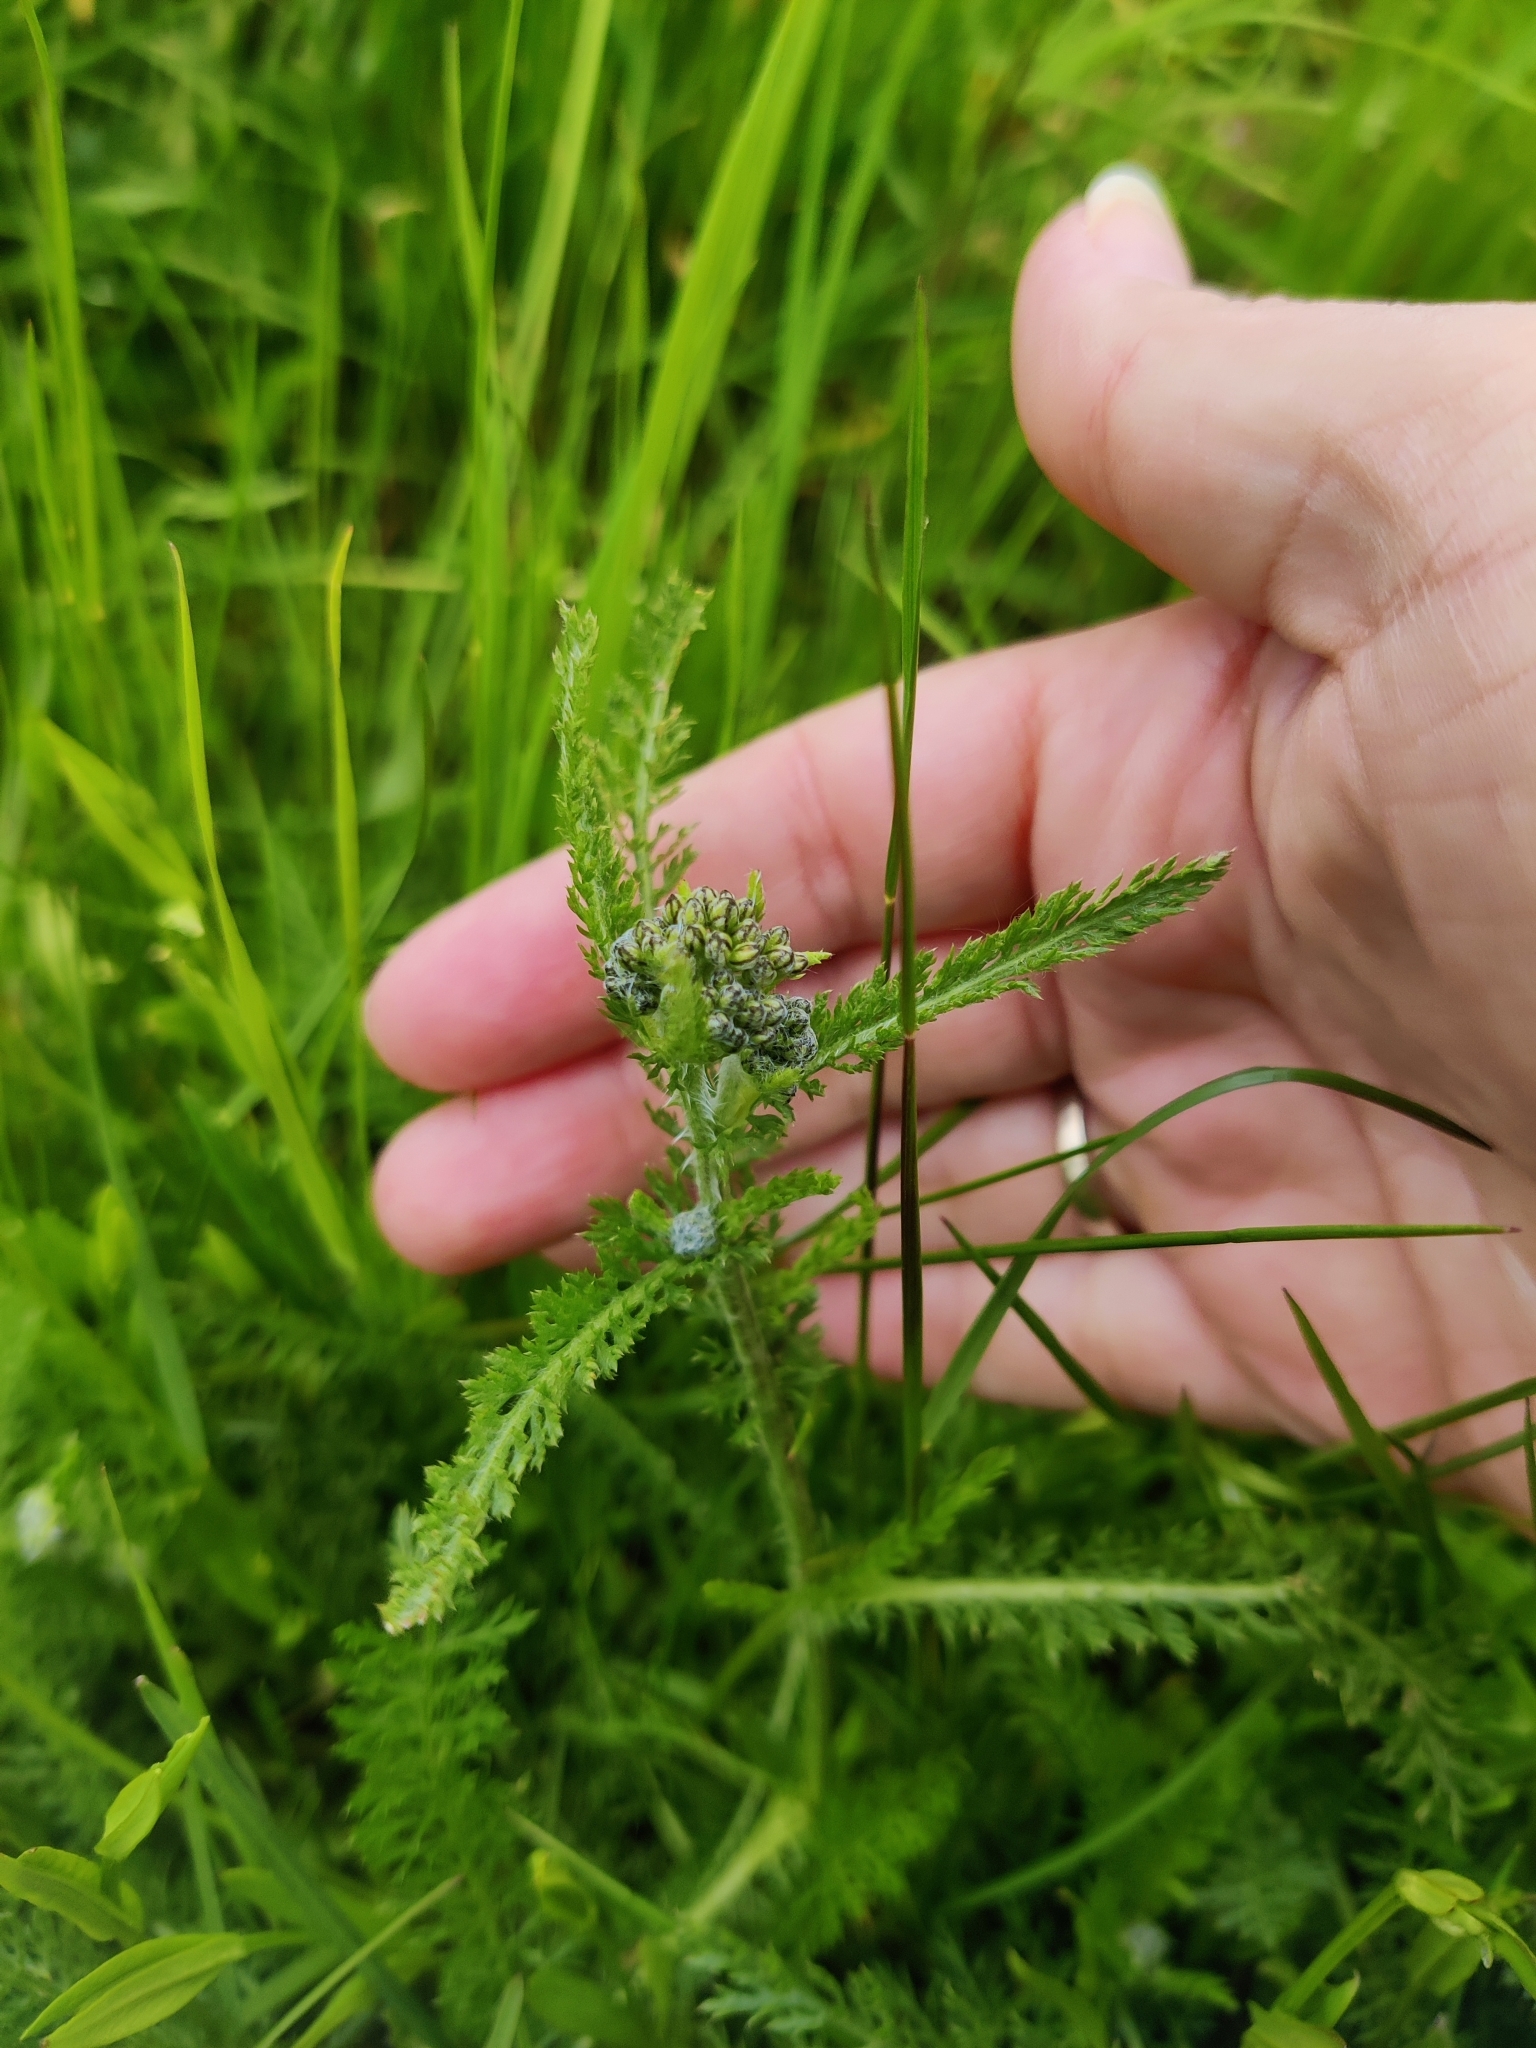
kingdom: Plantae
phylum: Tracheophyta
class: Magnoliopsida
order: Asterales
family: Asteraceae
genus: Achillea
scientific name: Achillea millefolium
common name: Yarrow
